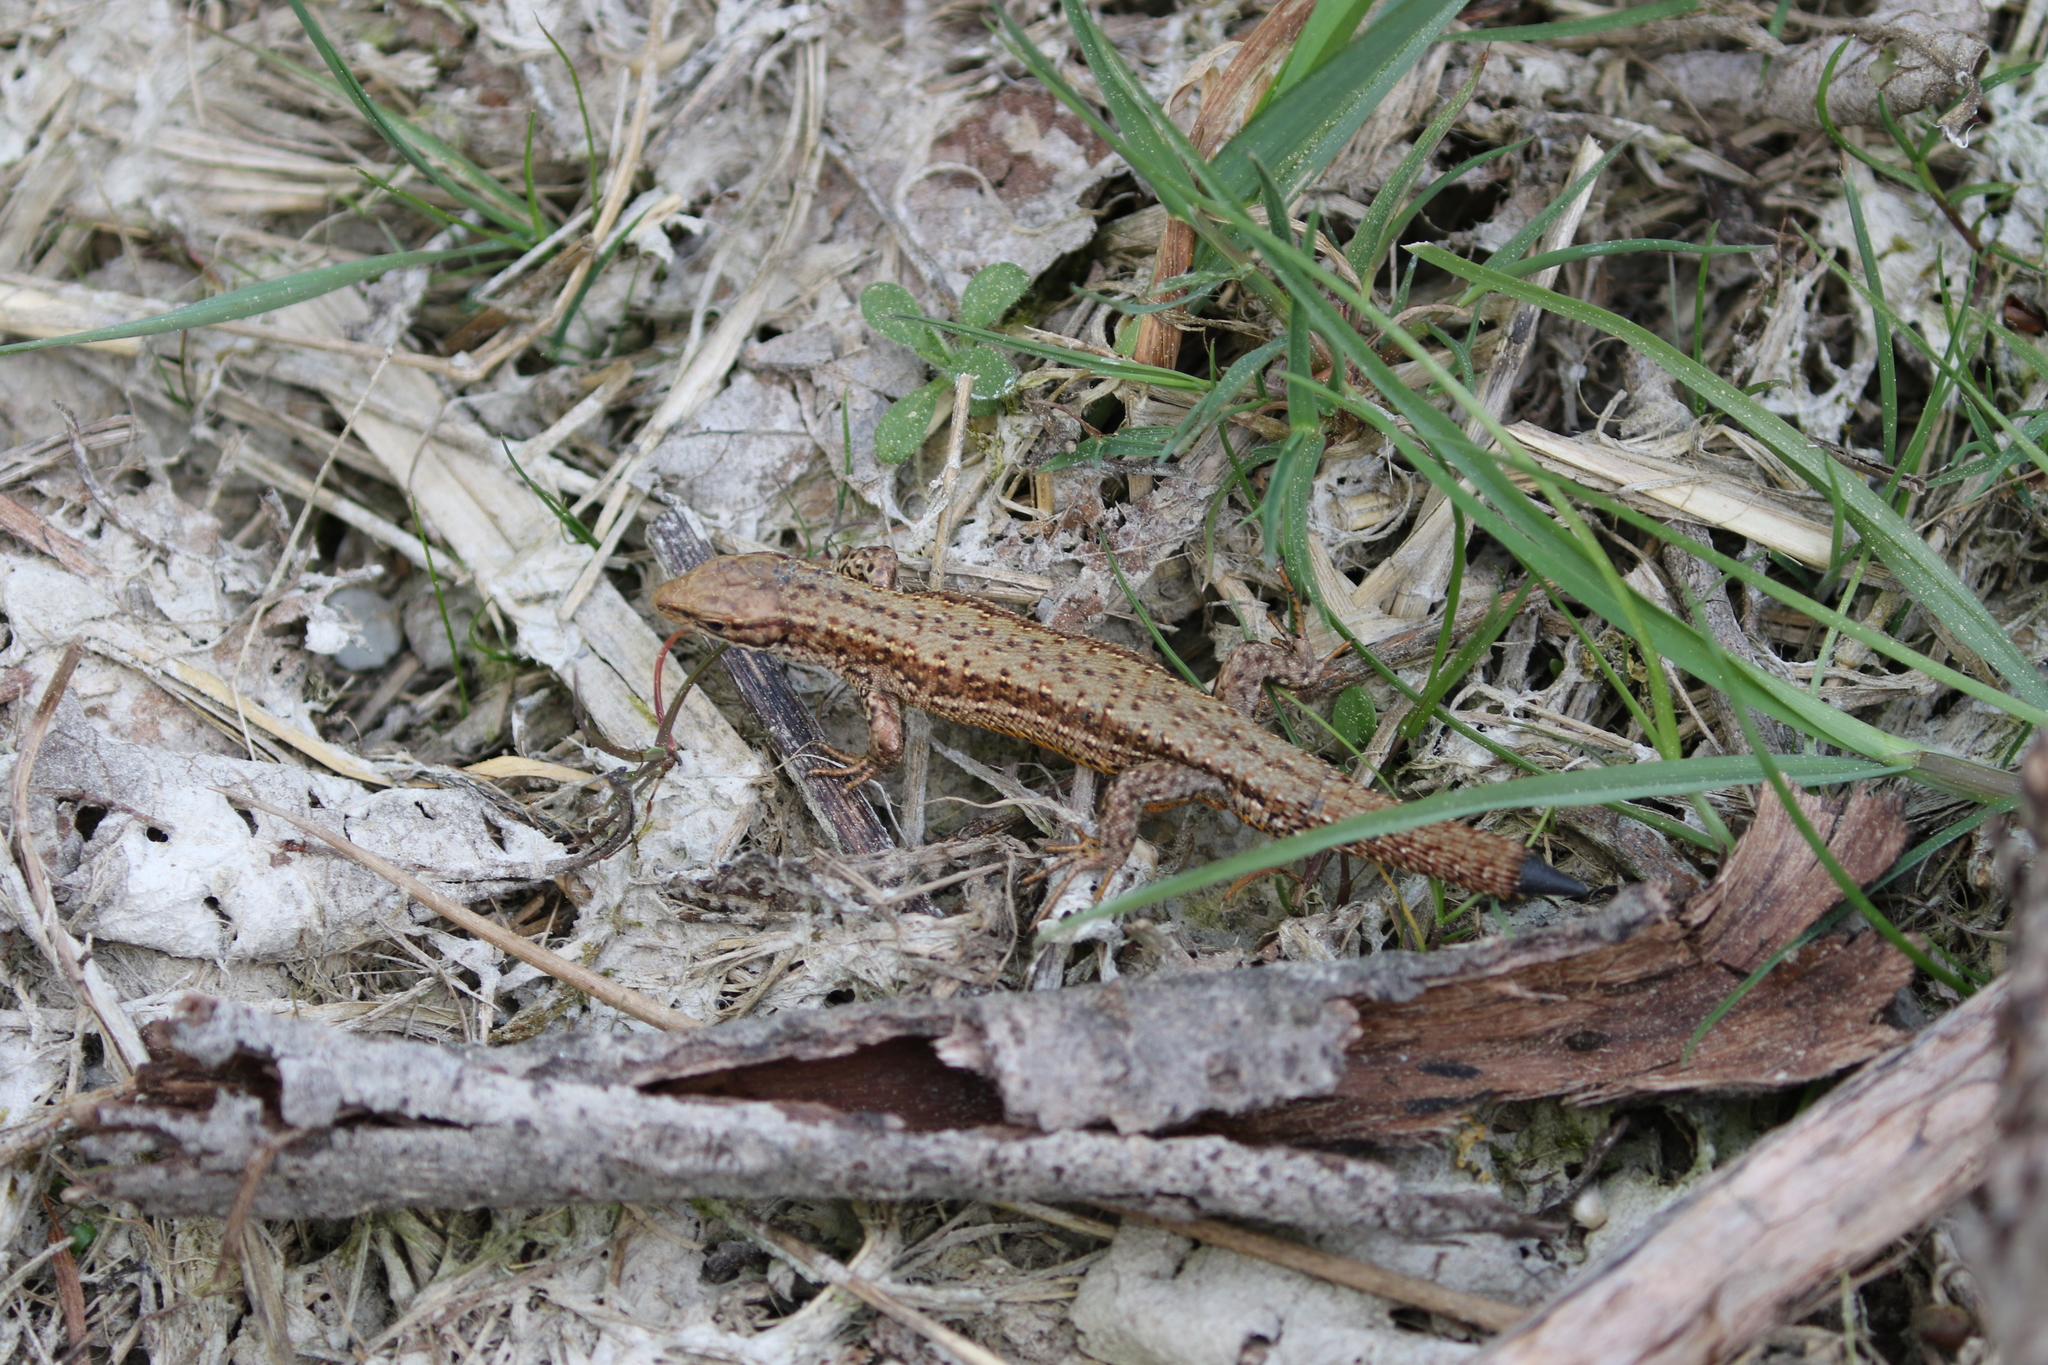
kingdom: Animalia
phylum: Chordata
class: Squamata
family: Lacertidae
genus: Zootoca
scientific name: Zootoca vivipara
